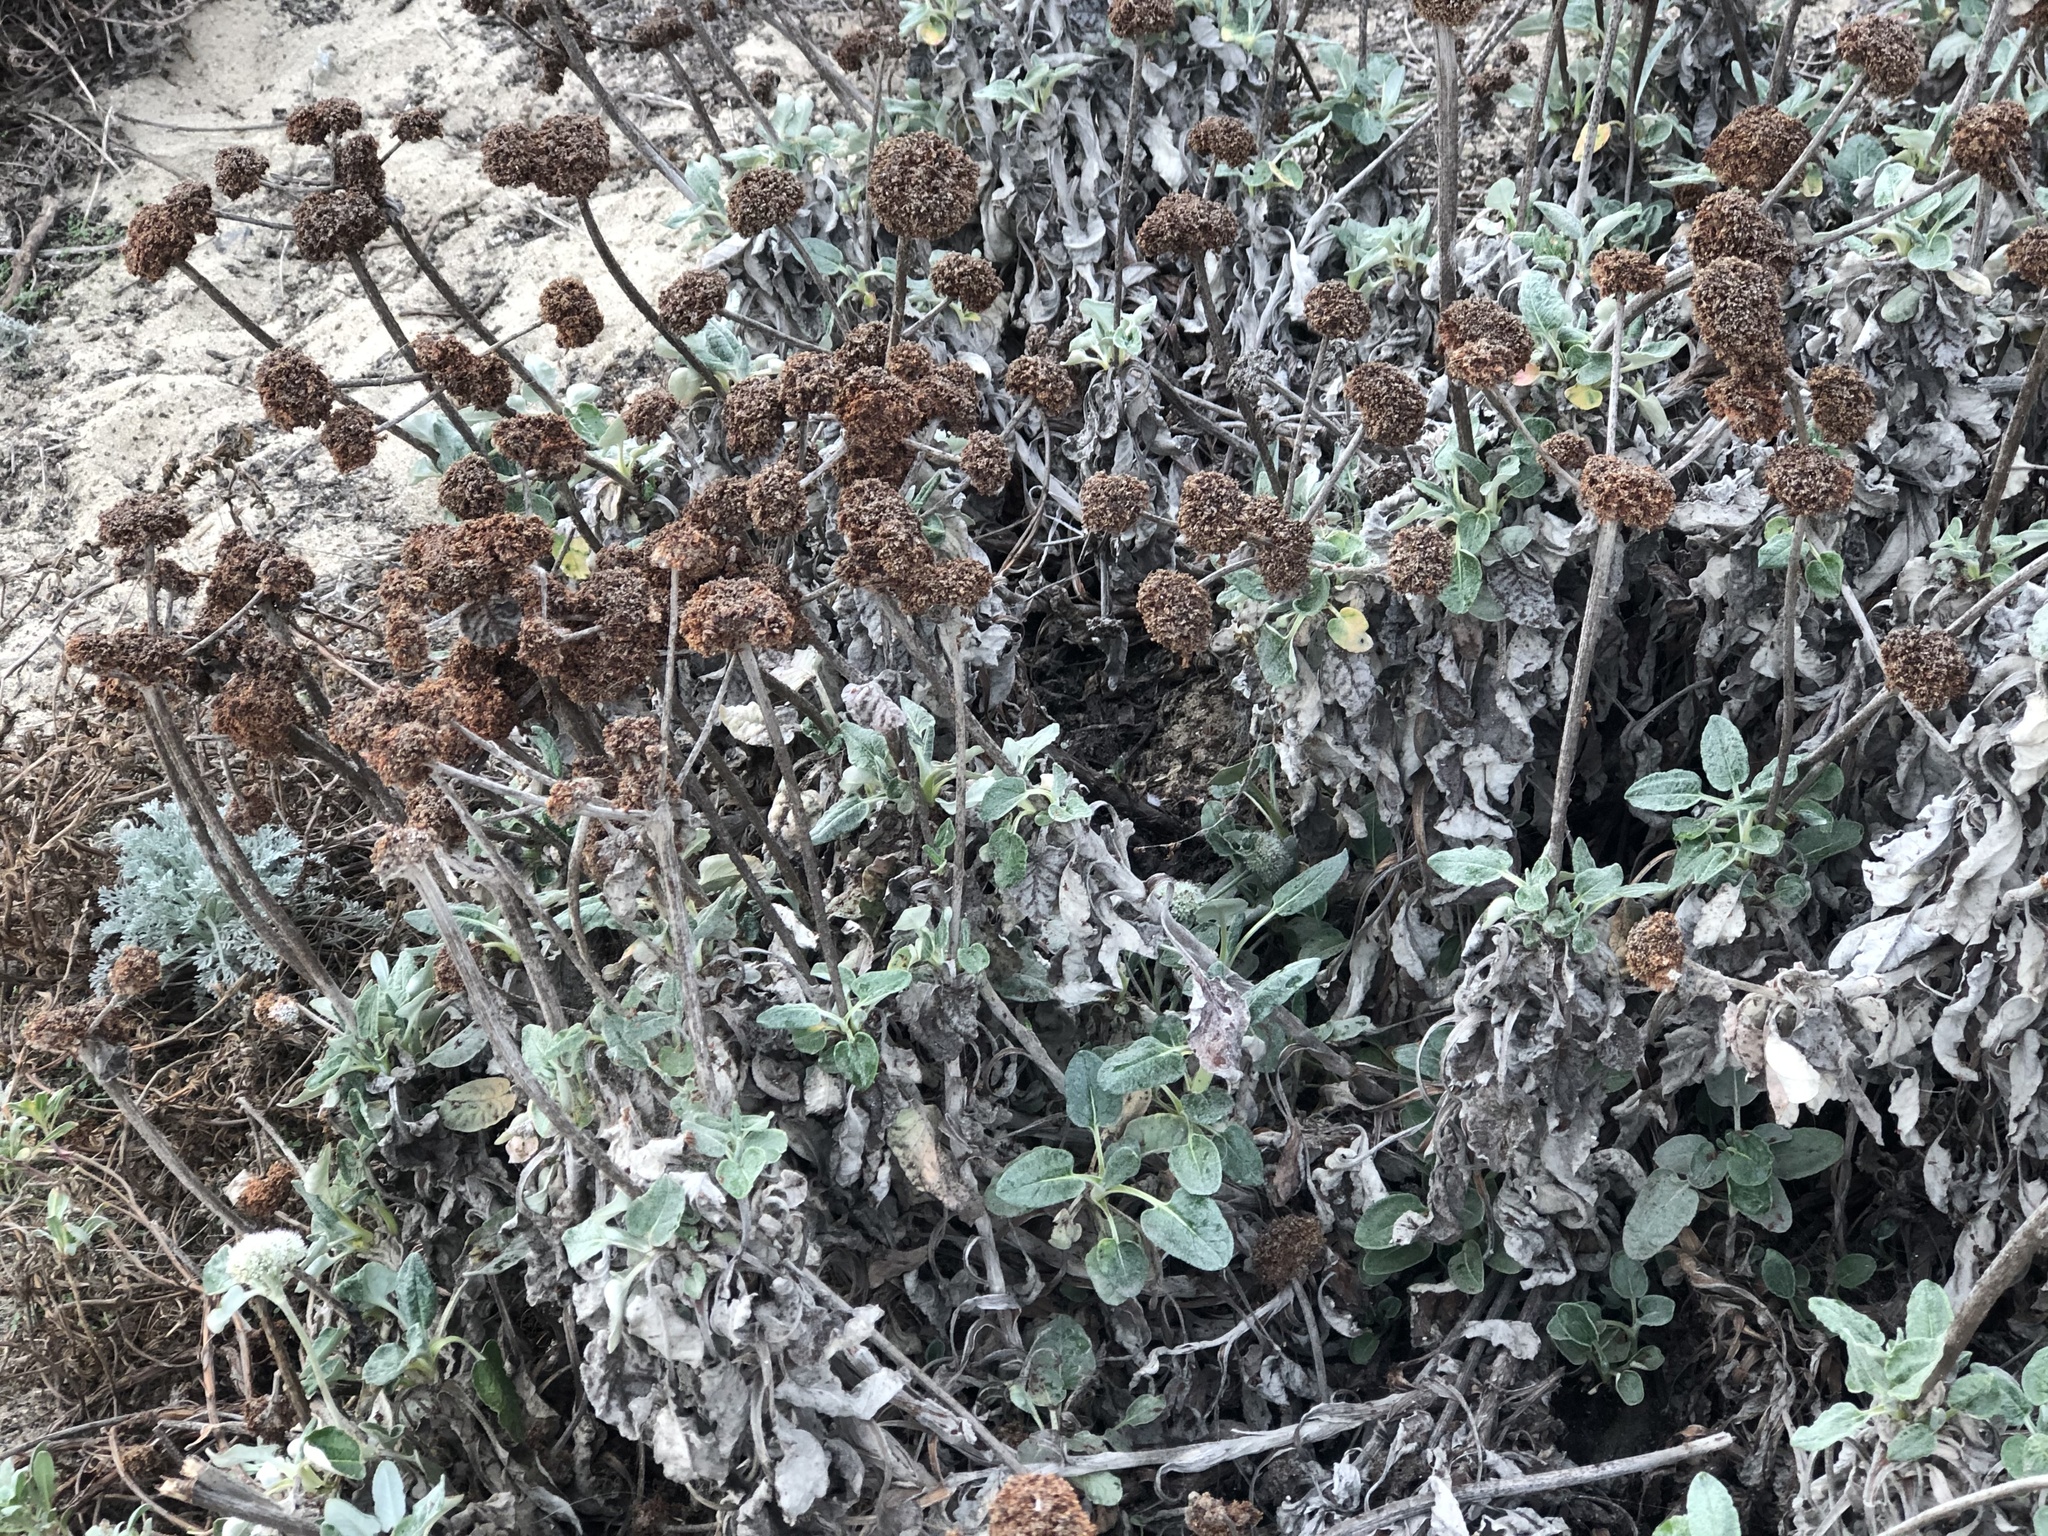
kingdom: Plantae
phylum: Tracheophyta
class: Magnoliopsida
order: Caryophyllales
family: Polygonaceae
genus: Eriogonum
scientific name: Eriogonum latifolium
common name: Seaside wild buckwheat
